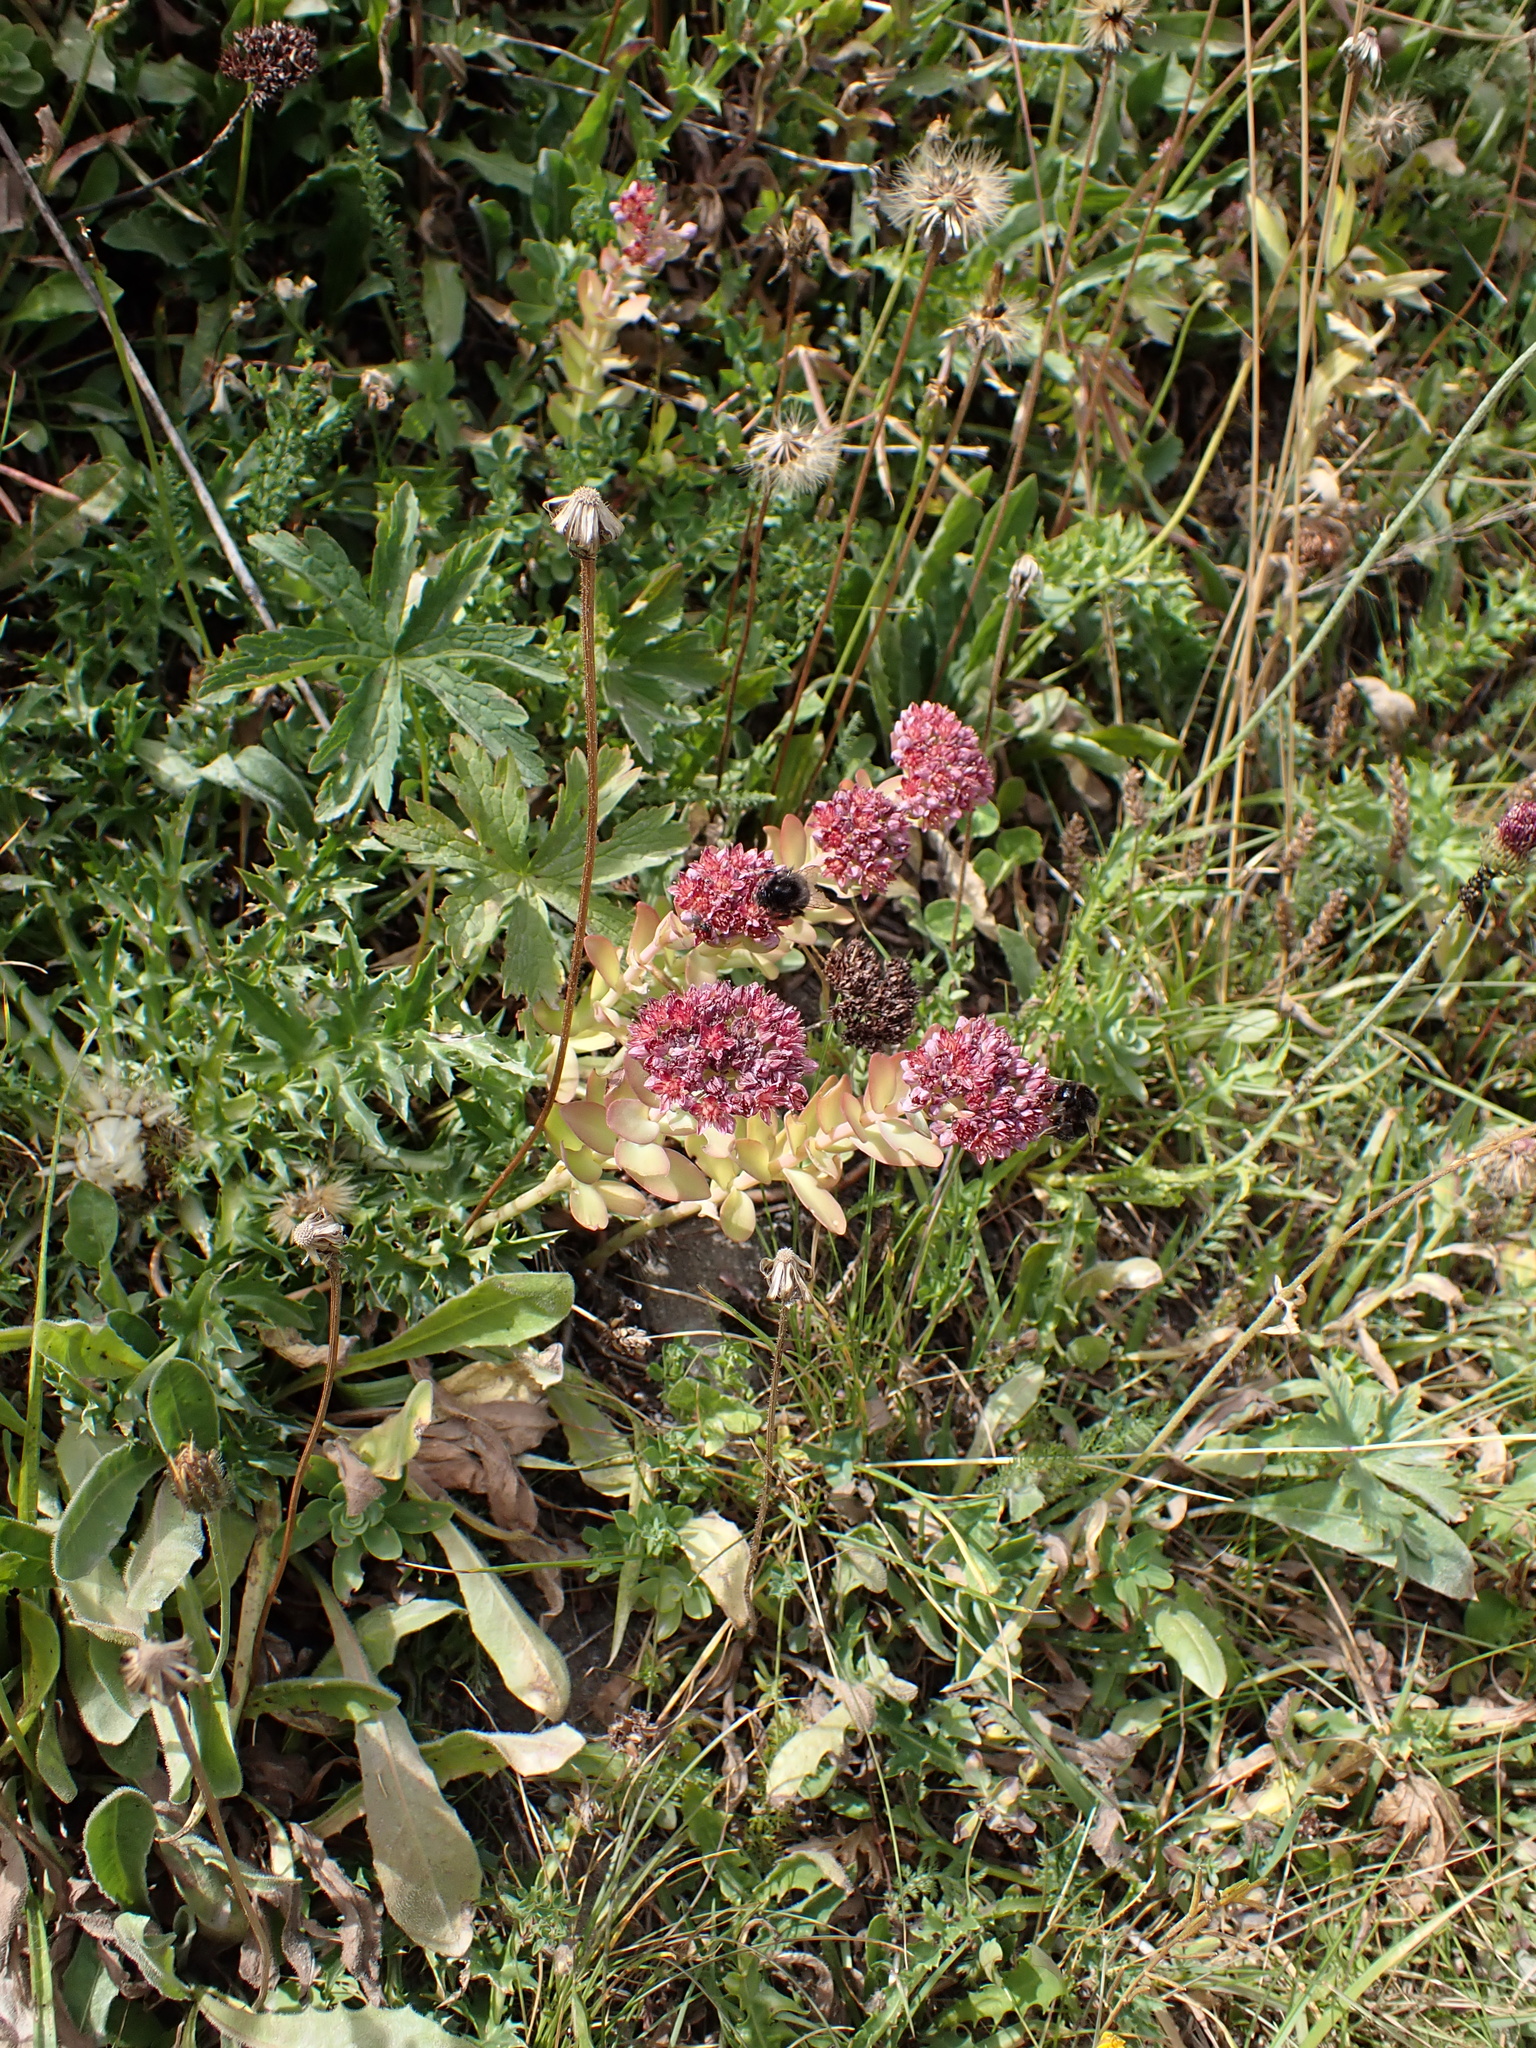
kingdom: Plantae
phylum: Tracheophyta
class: Magnoliopsida
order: Saxifragales
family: Crassulaceae
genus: Hylotelephium
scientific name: Hylotelephium anacampseros
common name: Love-restorer
